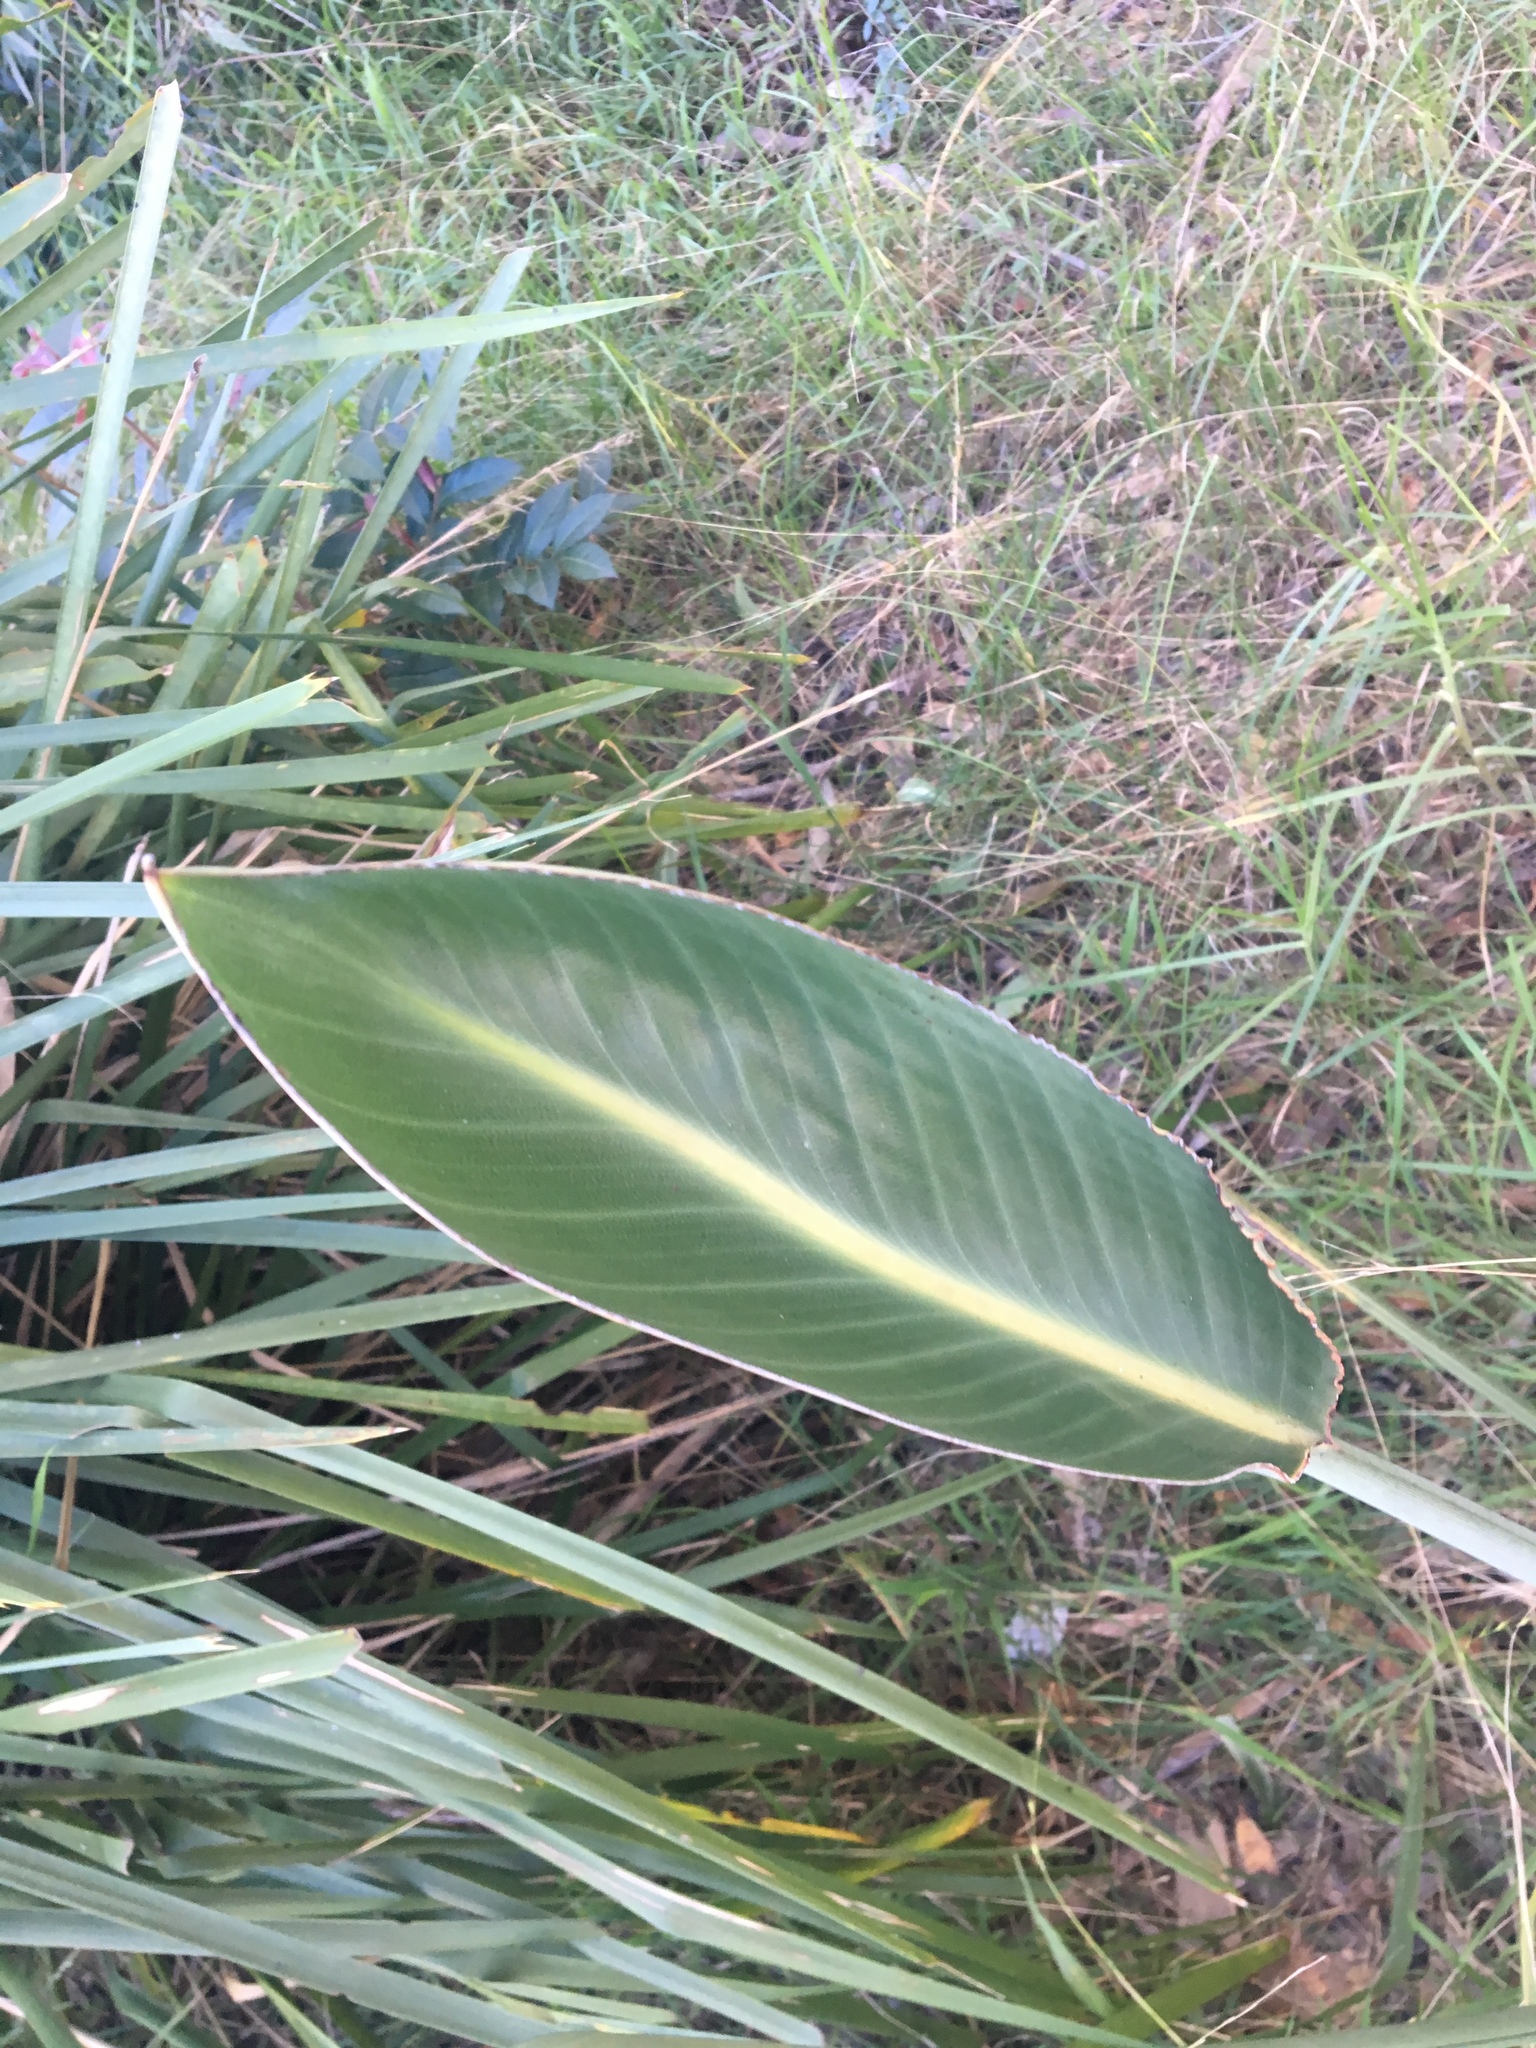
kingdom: Plantae
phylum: Tracheophyta
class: Liliopsida
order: Zingiberales
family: Strelitziaceae
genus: Strelitzia
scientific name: Strelitzia reginae
